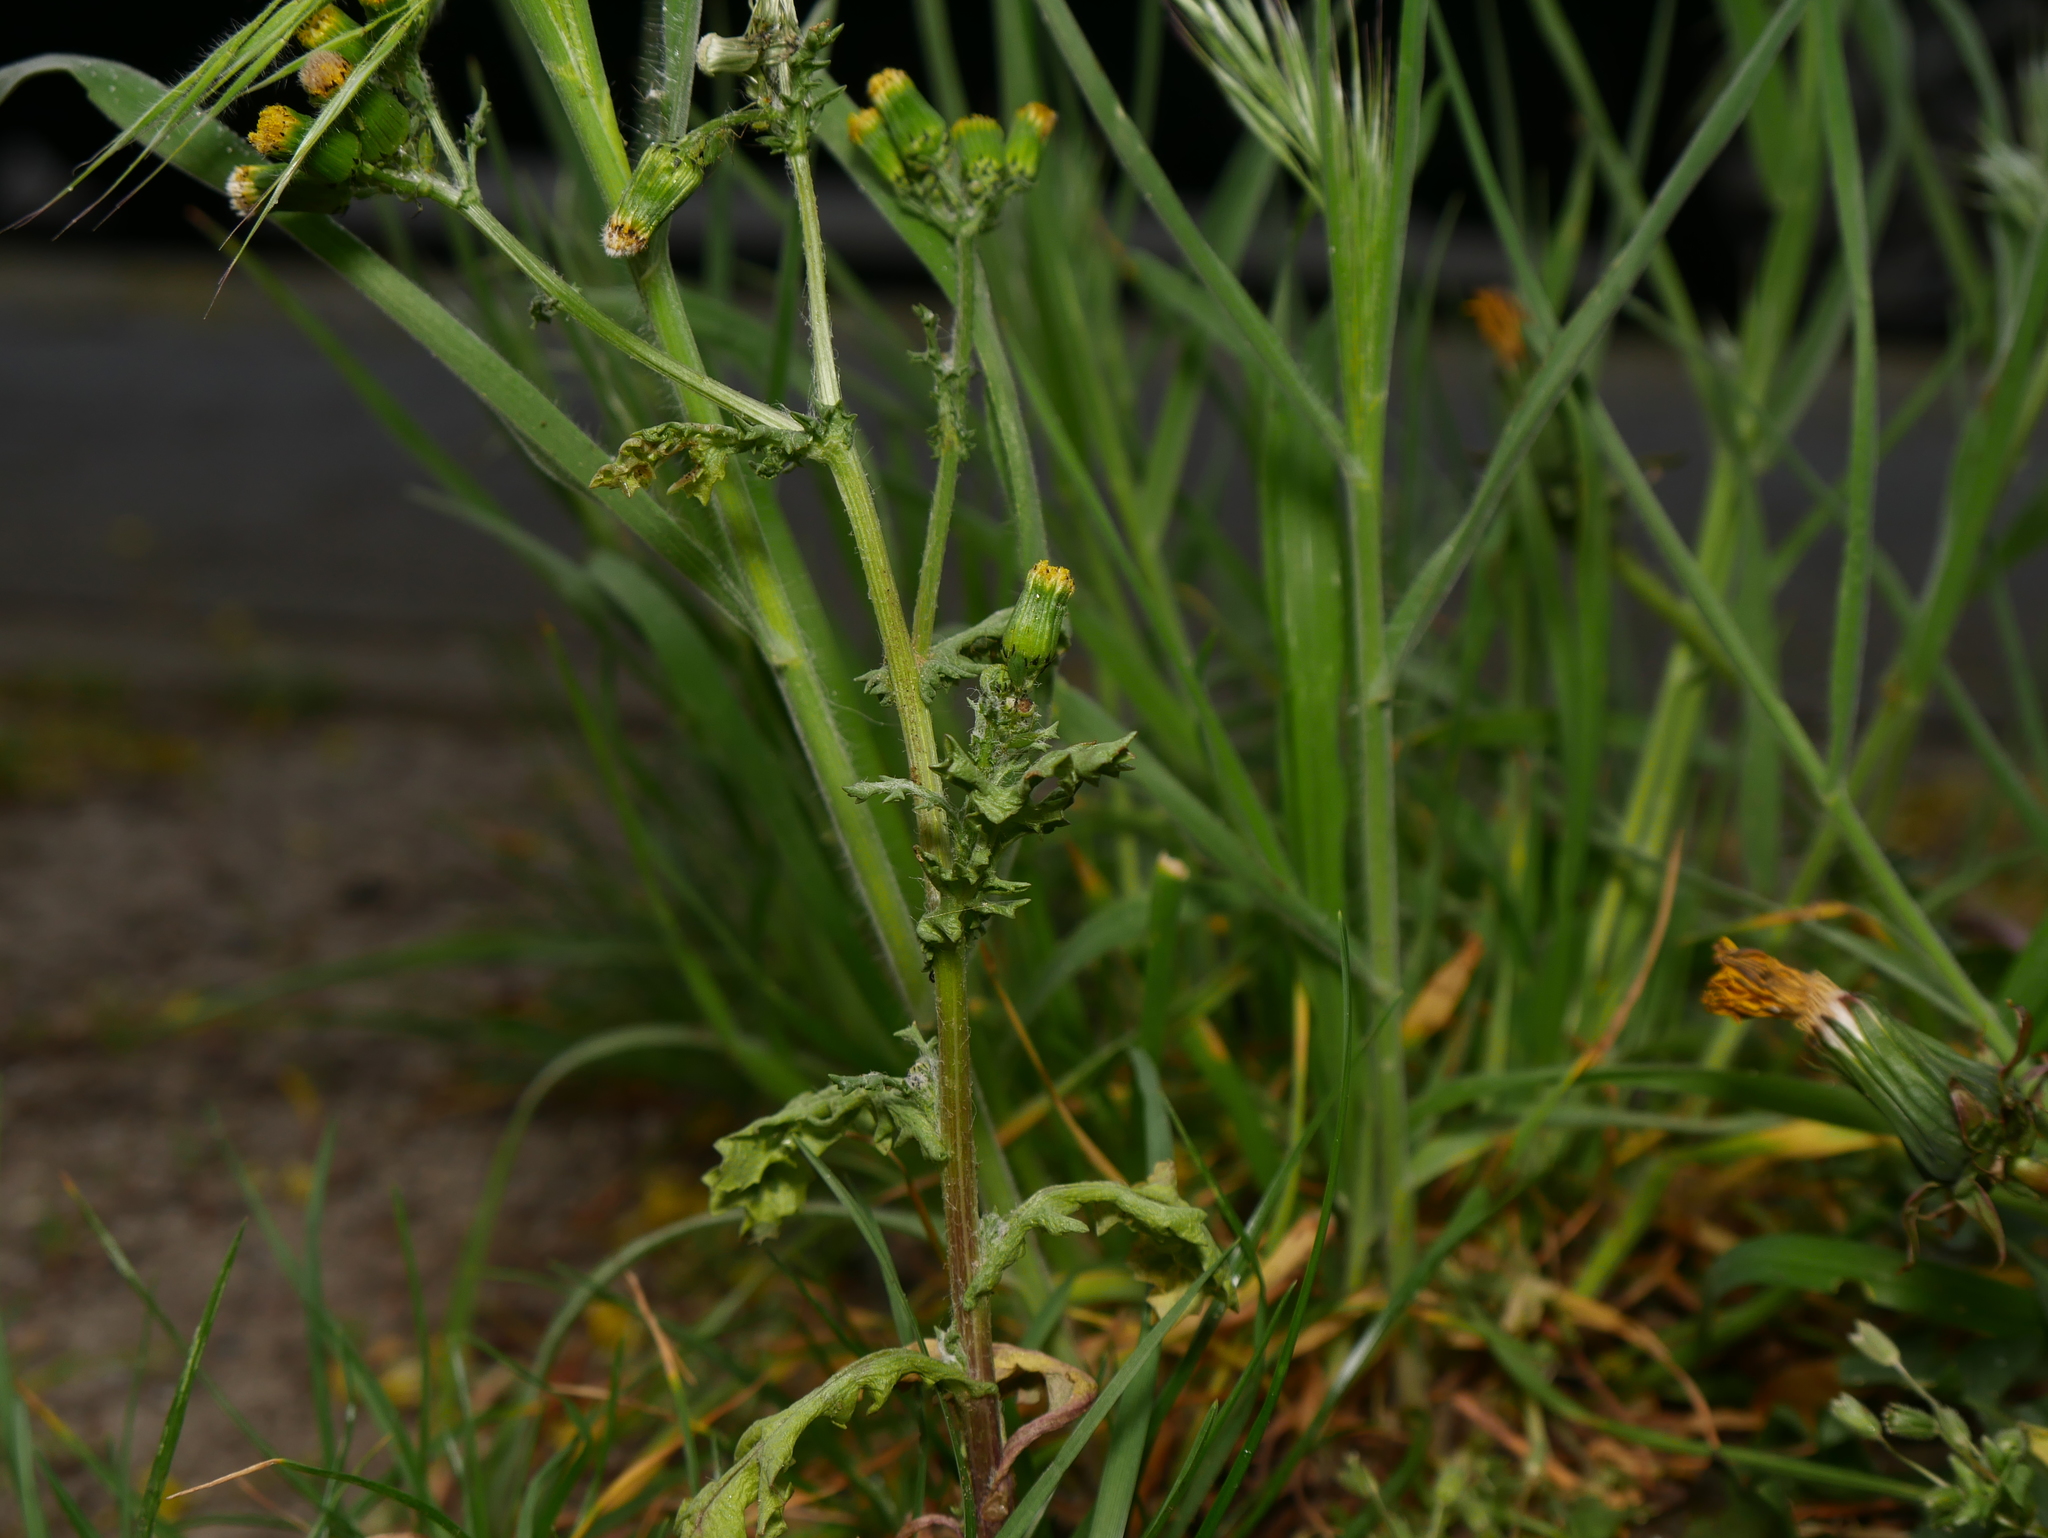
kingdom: Plantae
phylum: Tracheophyta
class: Magnoliopsida
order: Asterales
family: Asteraceae
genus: Senecio
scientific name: Senecio vulgaris
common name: Old-man-in-the-spring
